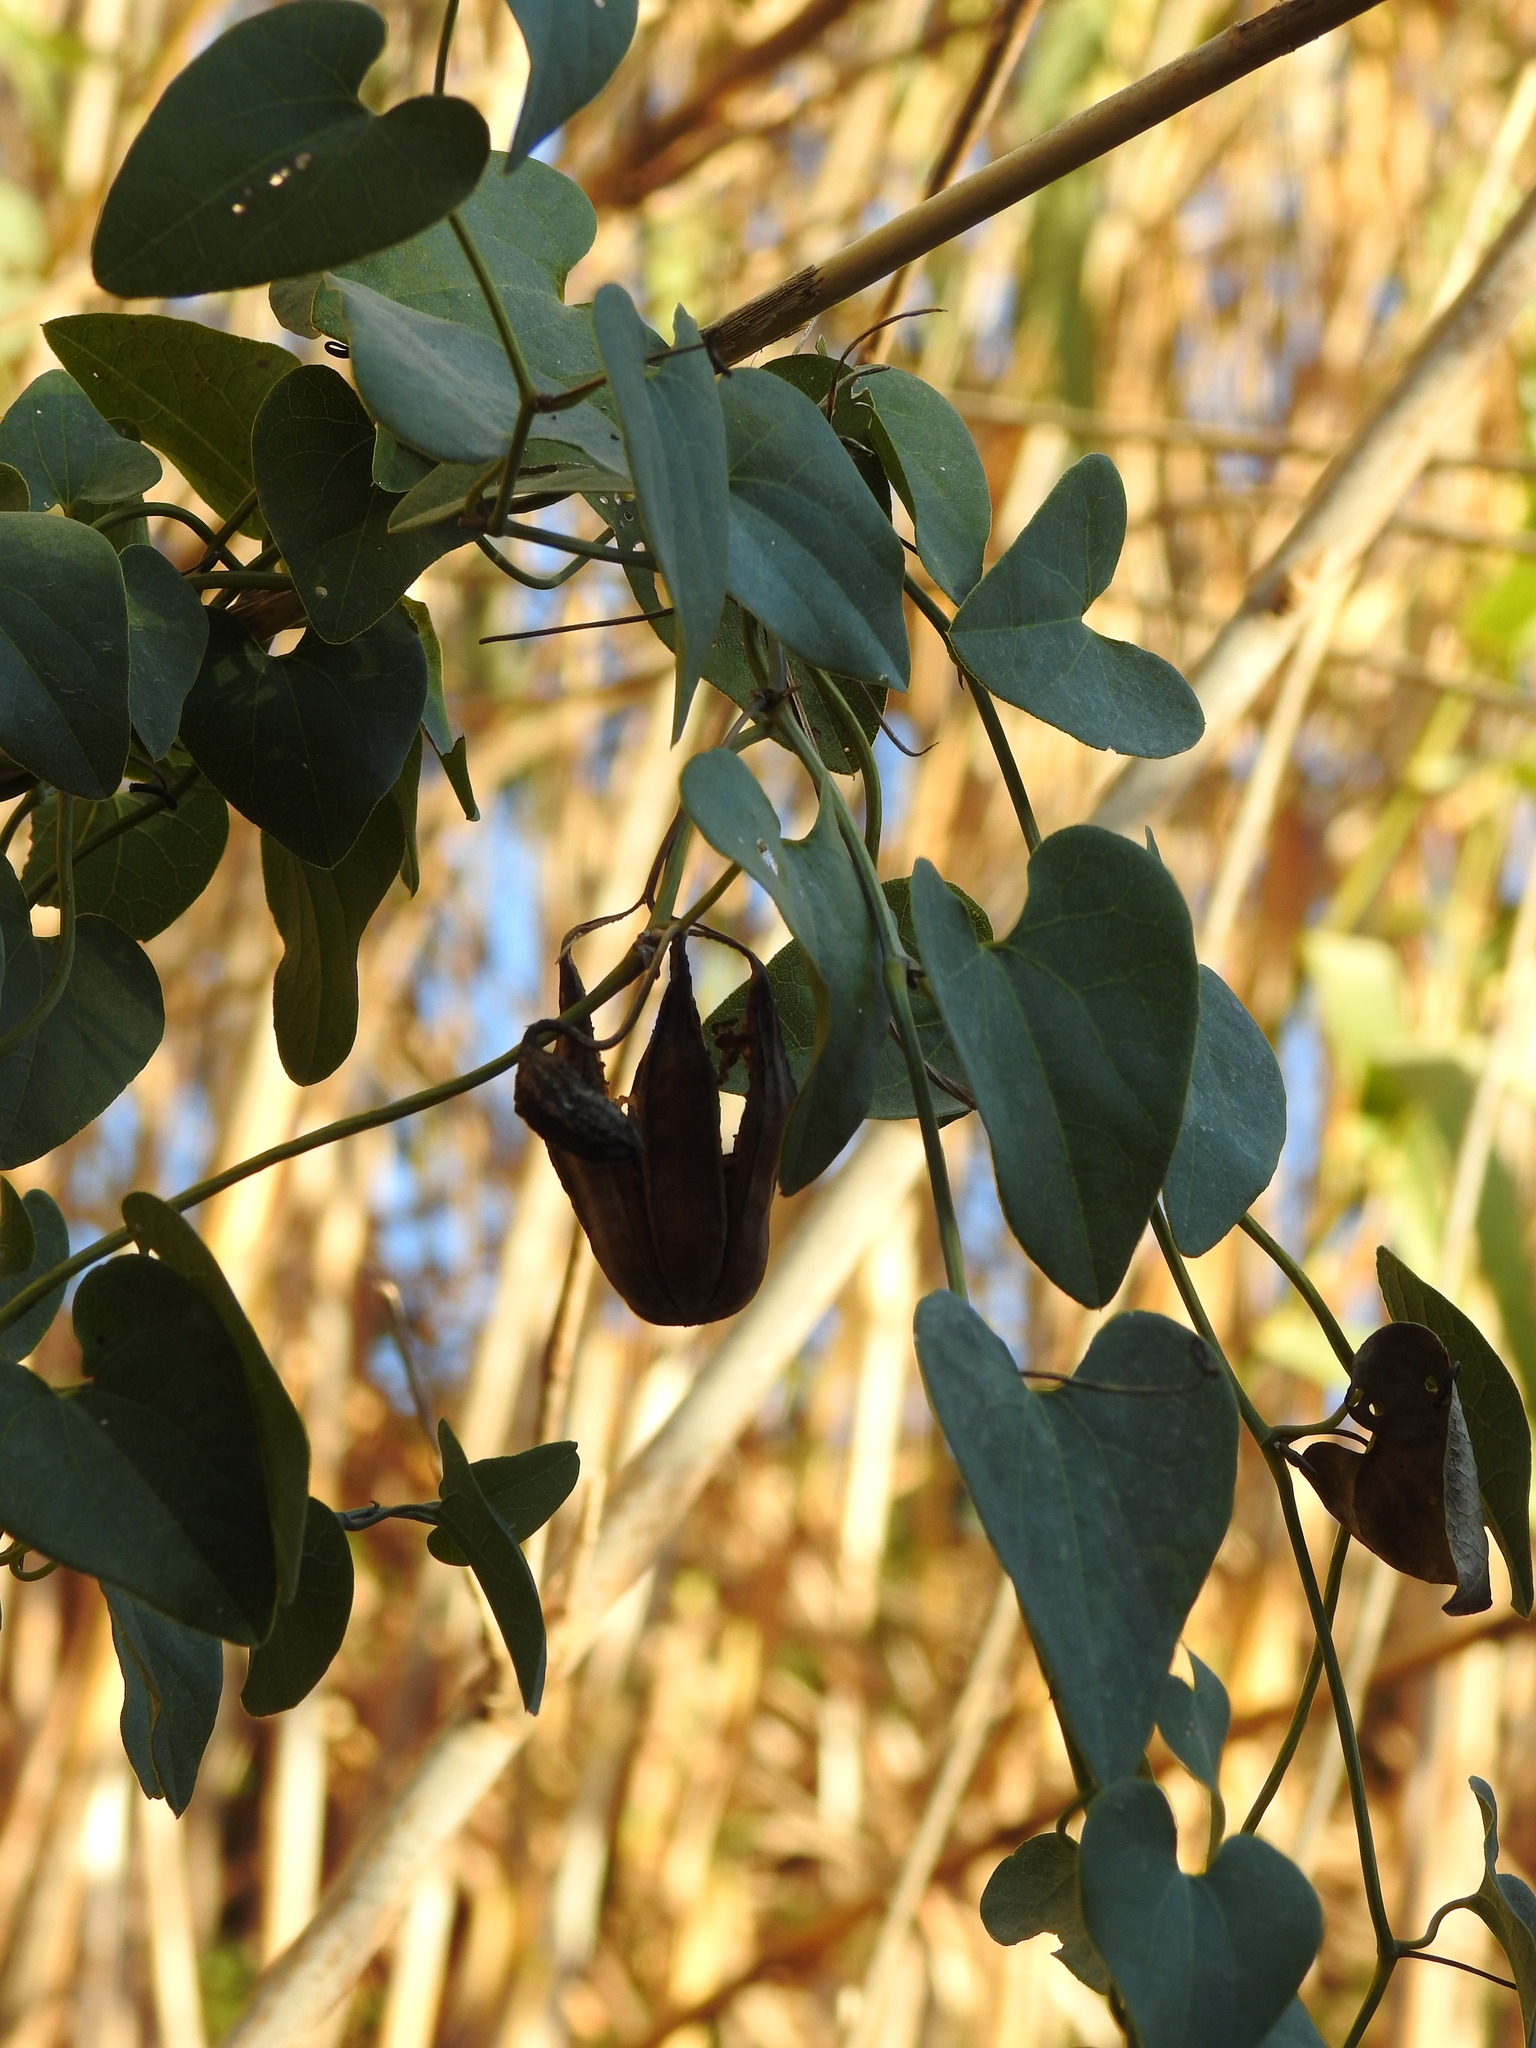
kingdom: Plantae
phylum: Tracheophyta
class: Magnoliopsida
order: Piperales
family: Aristolochiaceae
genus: Aristolochia
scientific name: Aristolochia baetica
